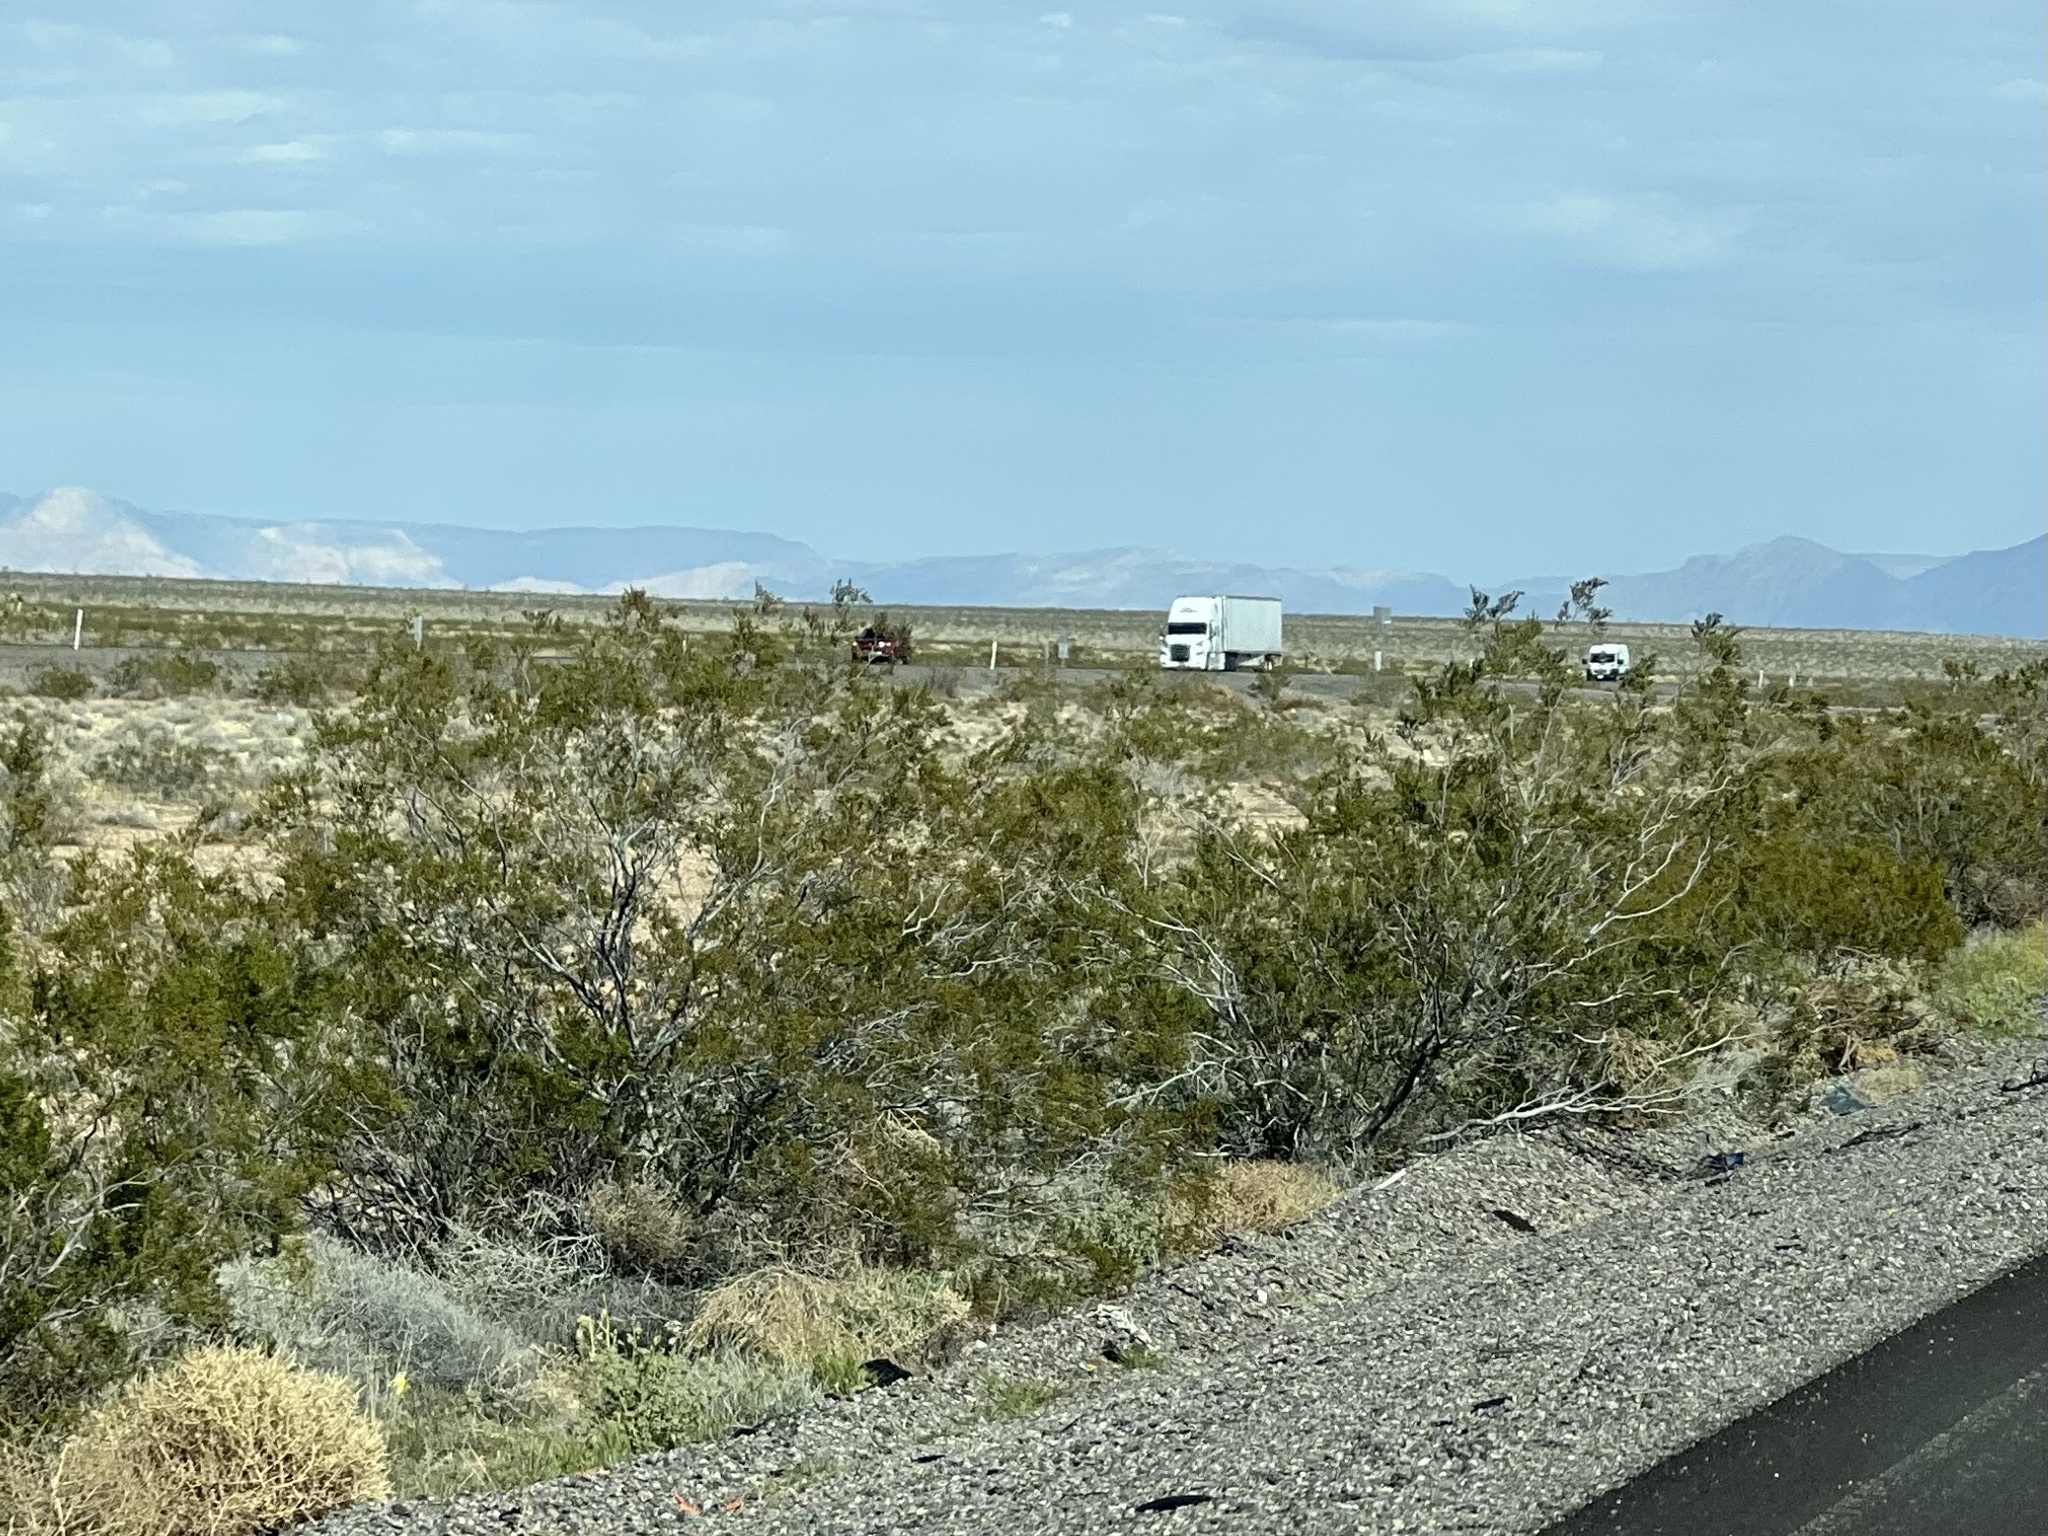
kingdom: Plantae
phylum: Tracheophyta
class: Magnoliopsida
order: Zygophyllales
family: Zygophyllaceae
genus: Larrea
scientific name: Larrea tridentata
